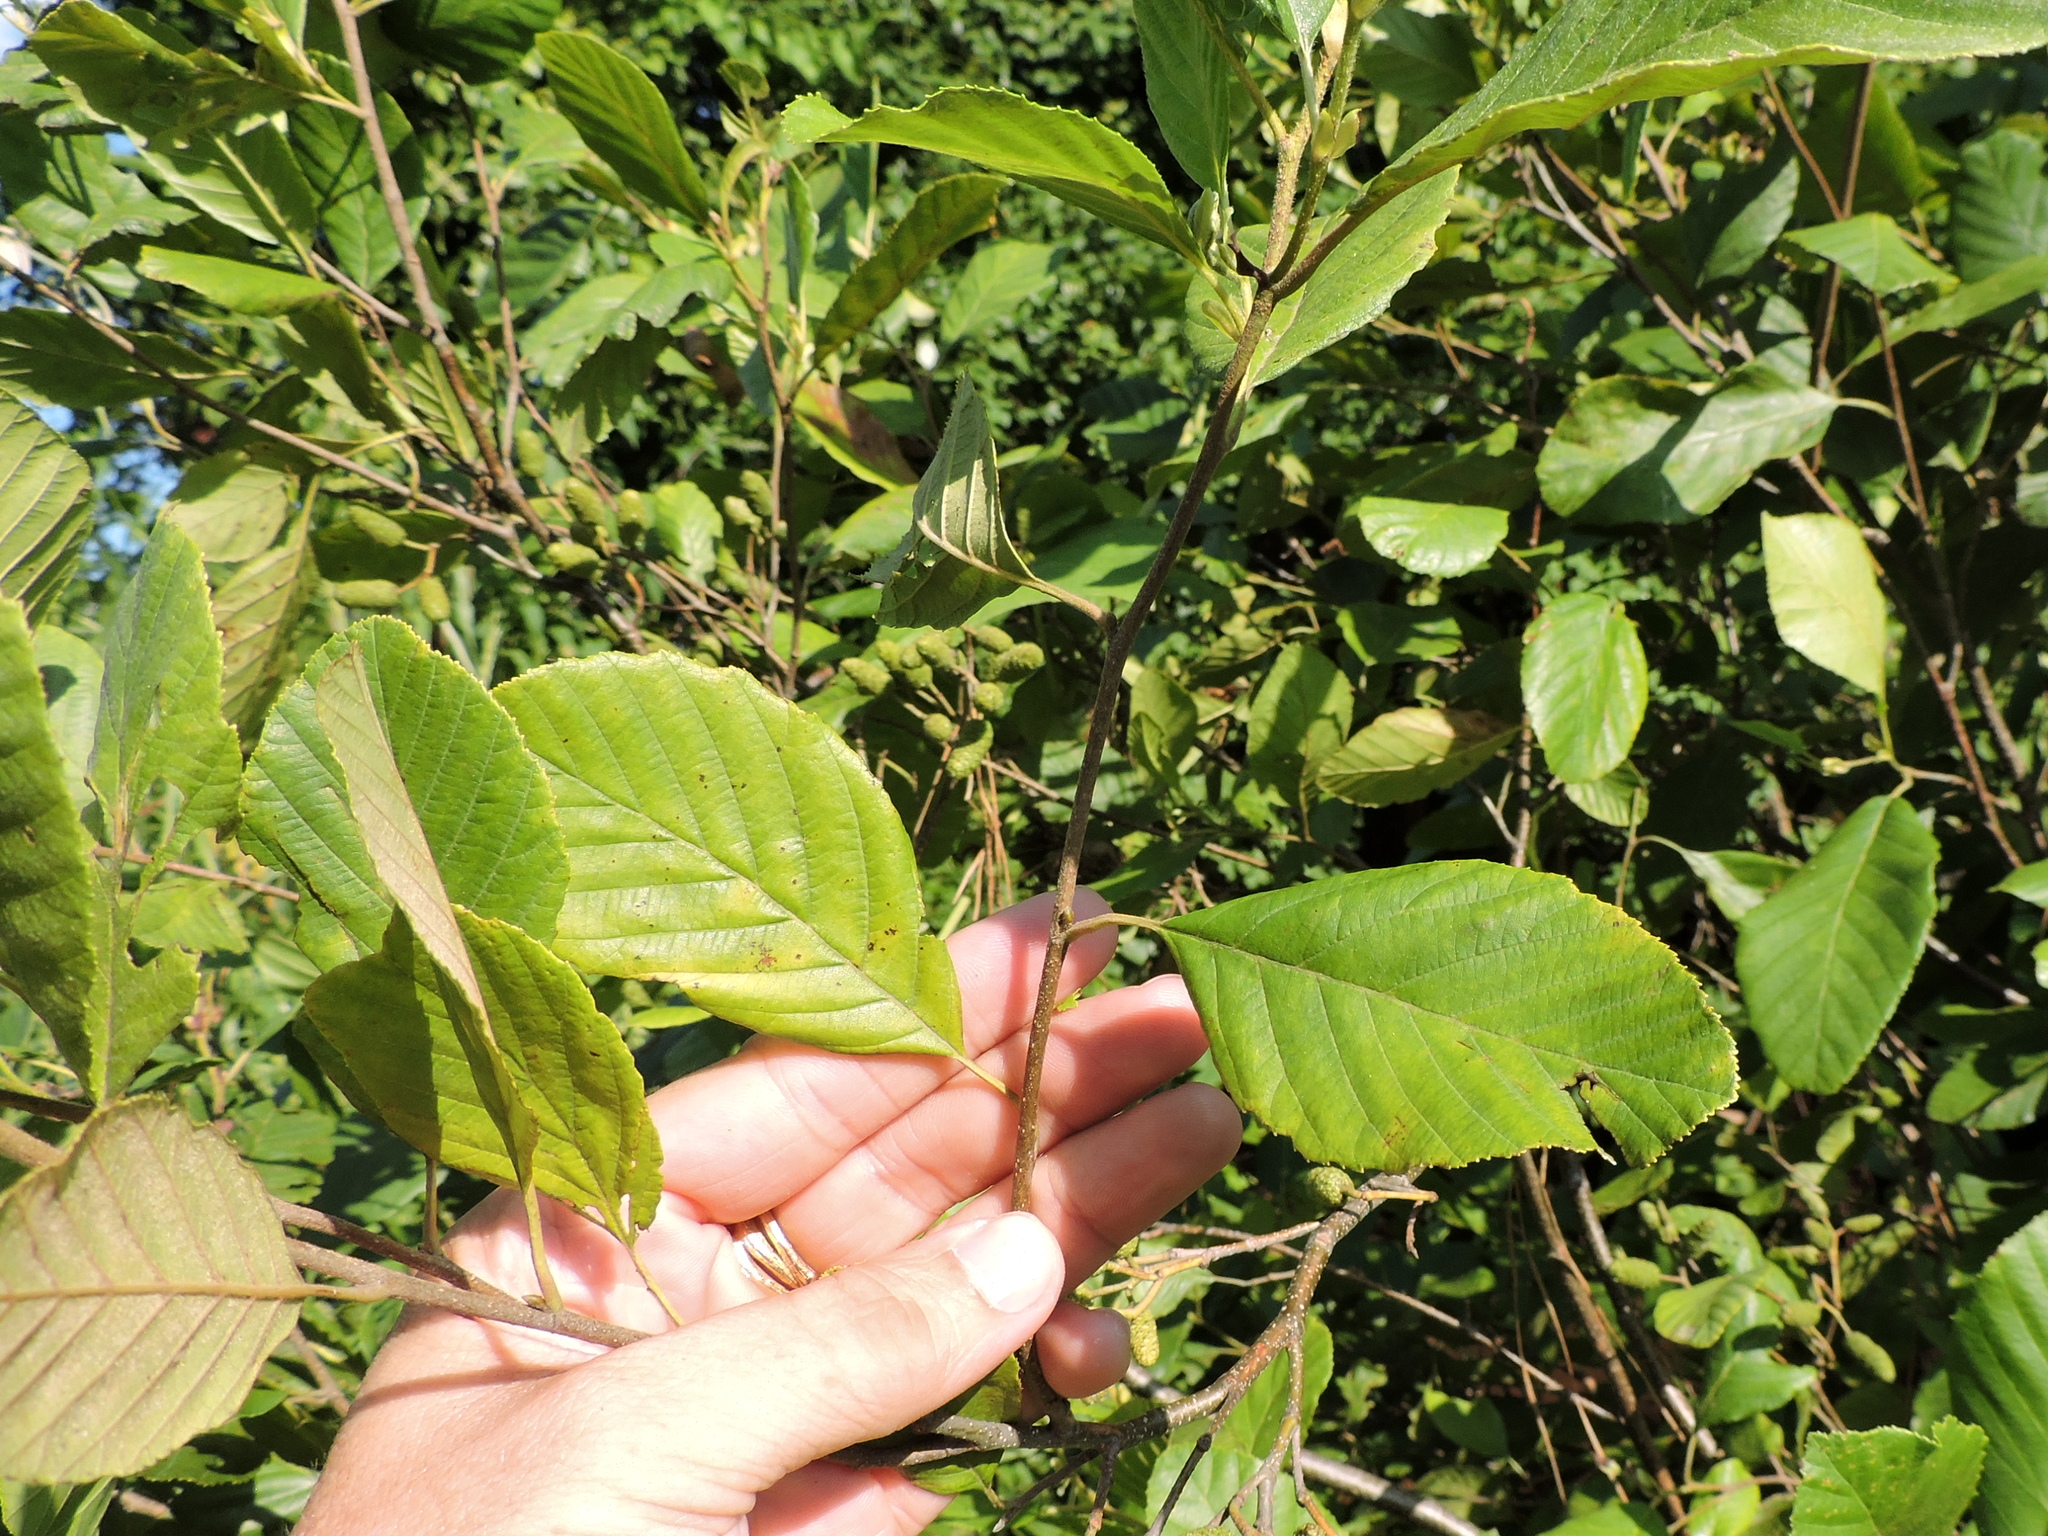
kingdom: Plantae
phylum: Tracheophyta
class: Magnoliopsida
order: Fagales
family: Betulaceae
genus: Alnus
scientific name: Alnus serrulata
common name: Hazel alder
